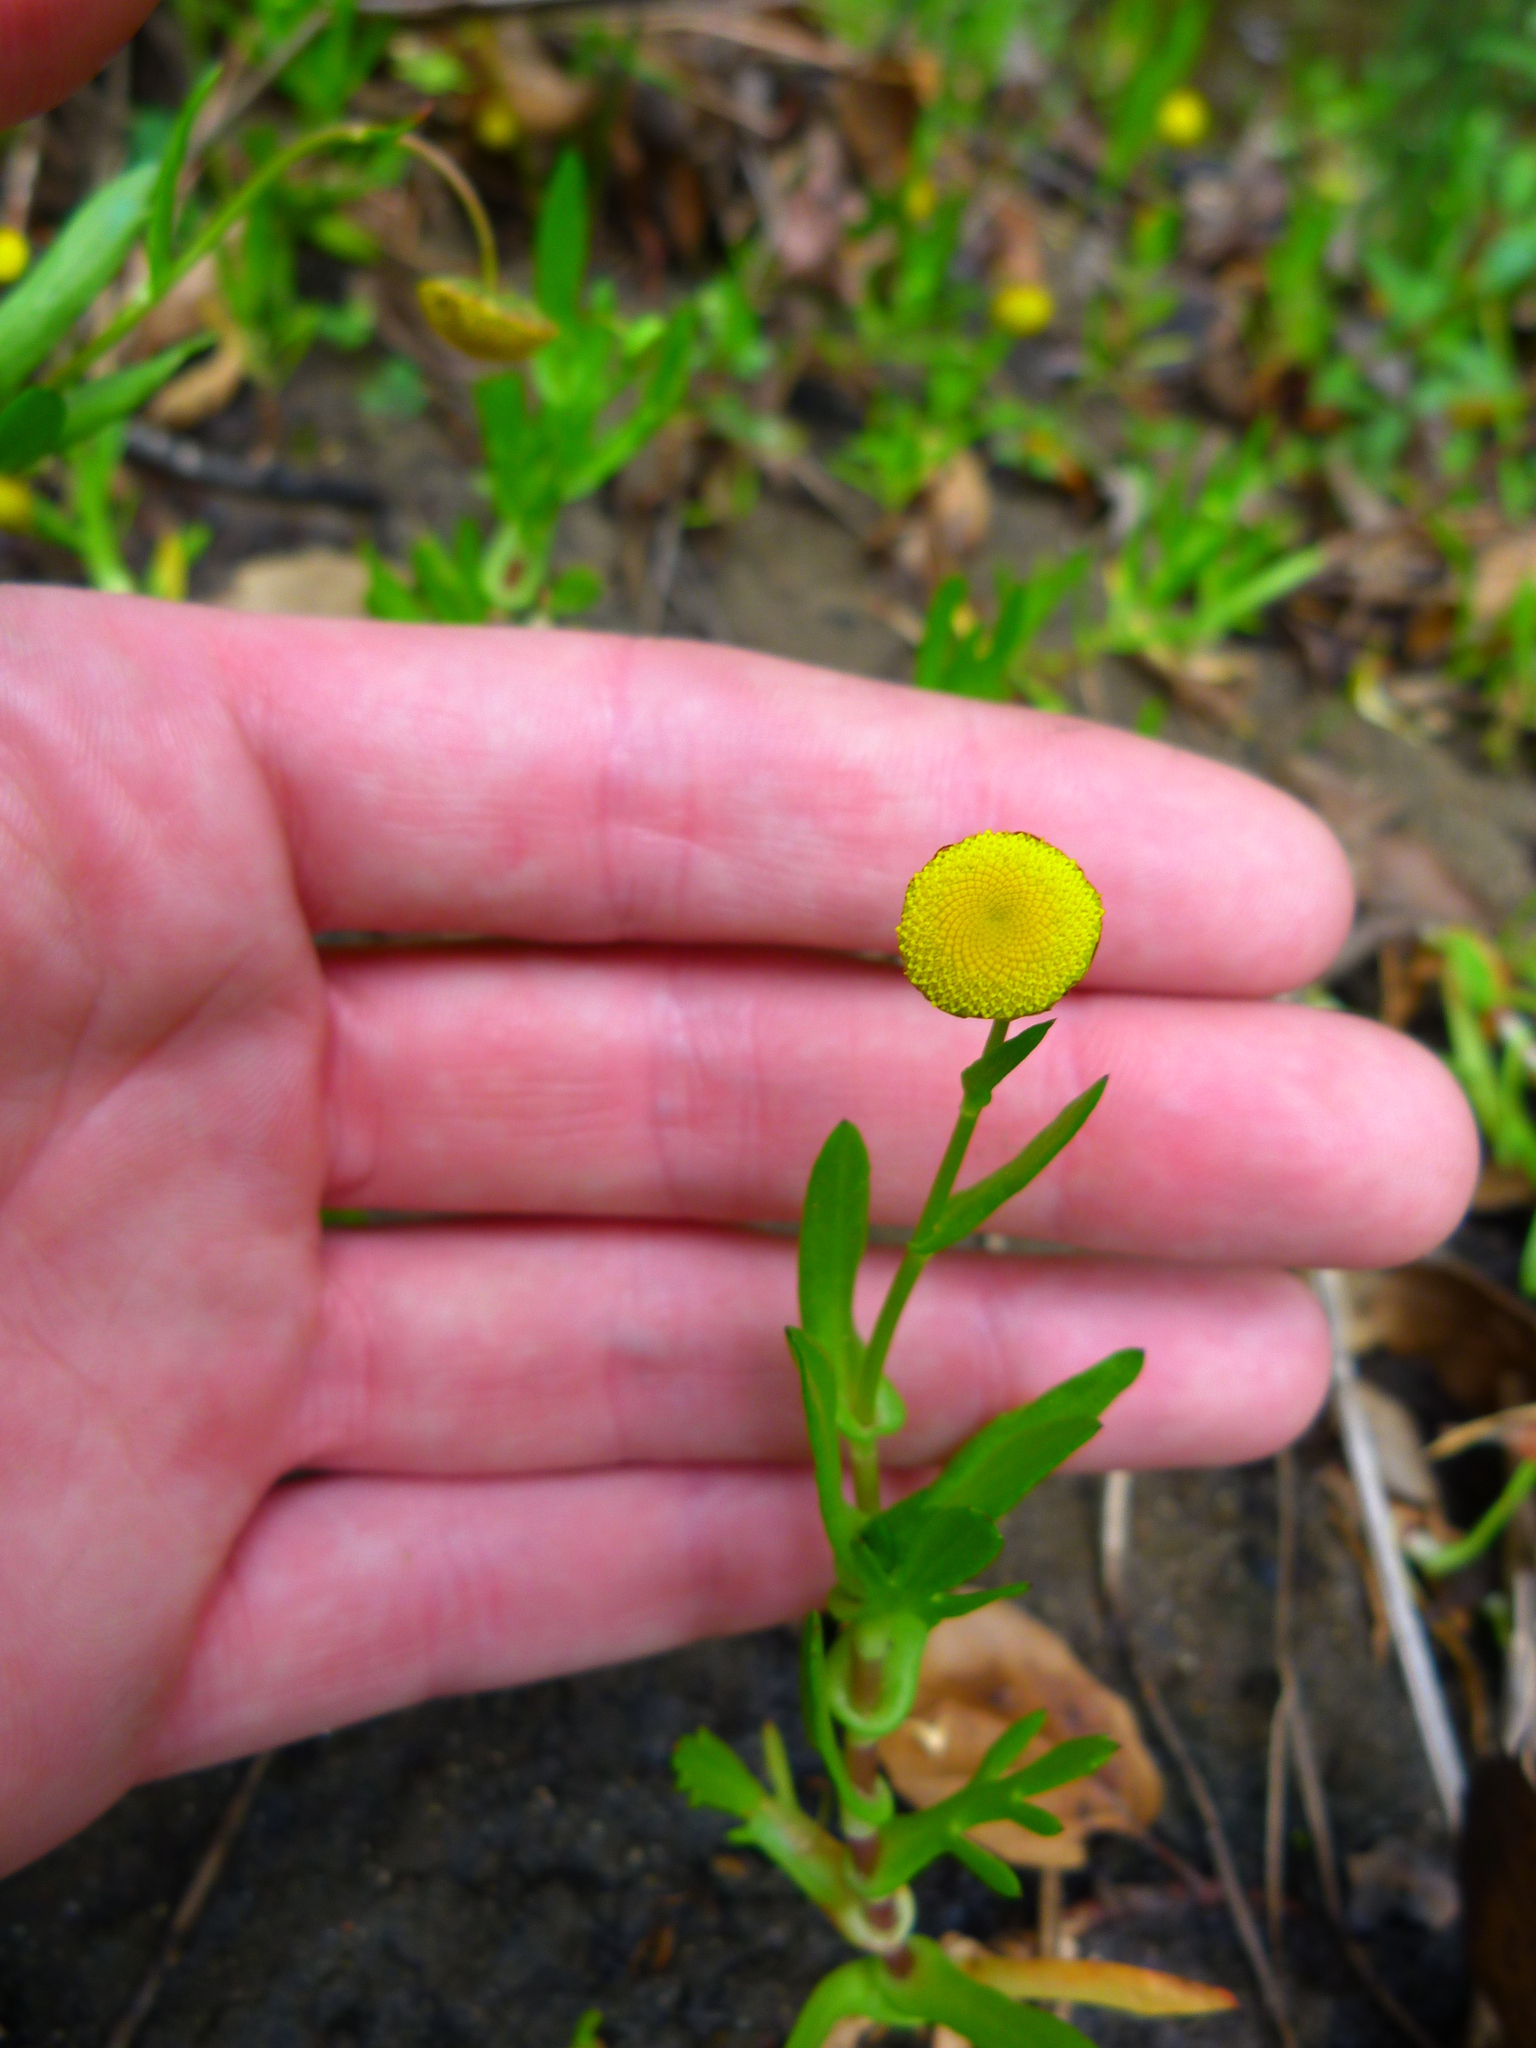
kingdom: Plantae
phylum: Tracheophyta
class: Magnoliopsida
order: Asterales
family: Asteraceae
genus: Cotula
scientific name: Cotula coronopifolia
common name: Buttonweed
